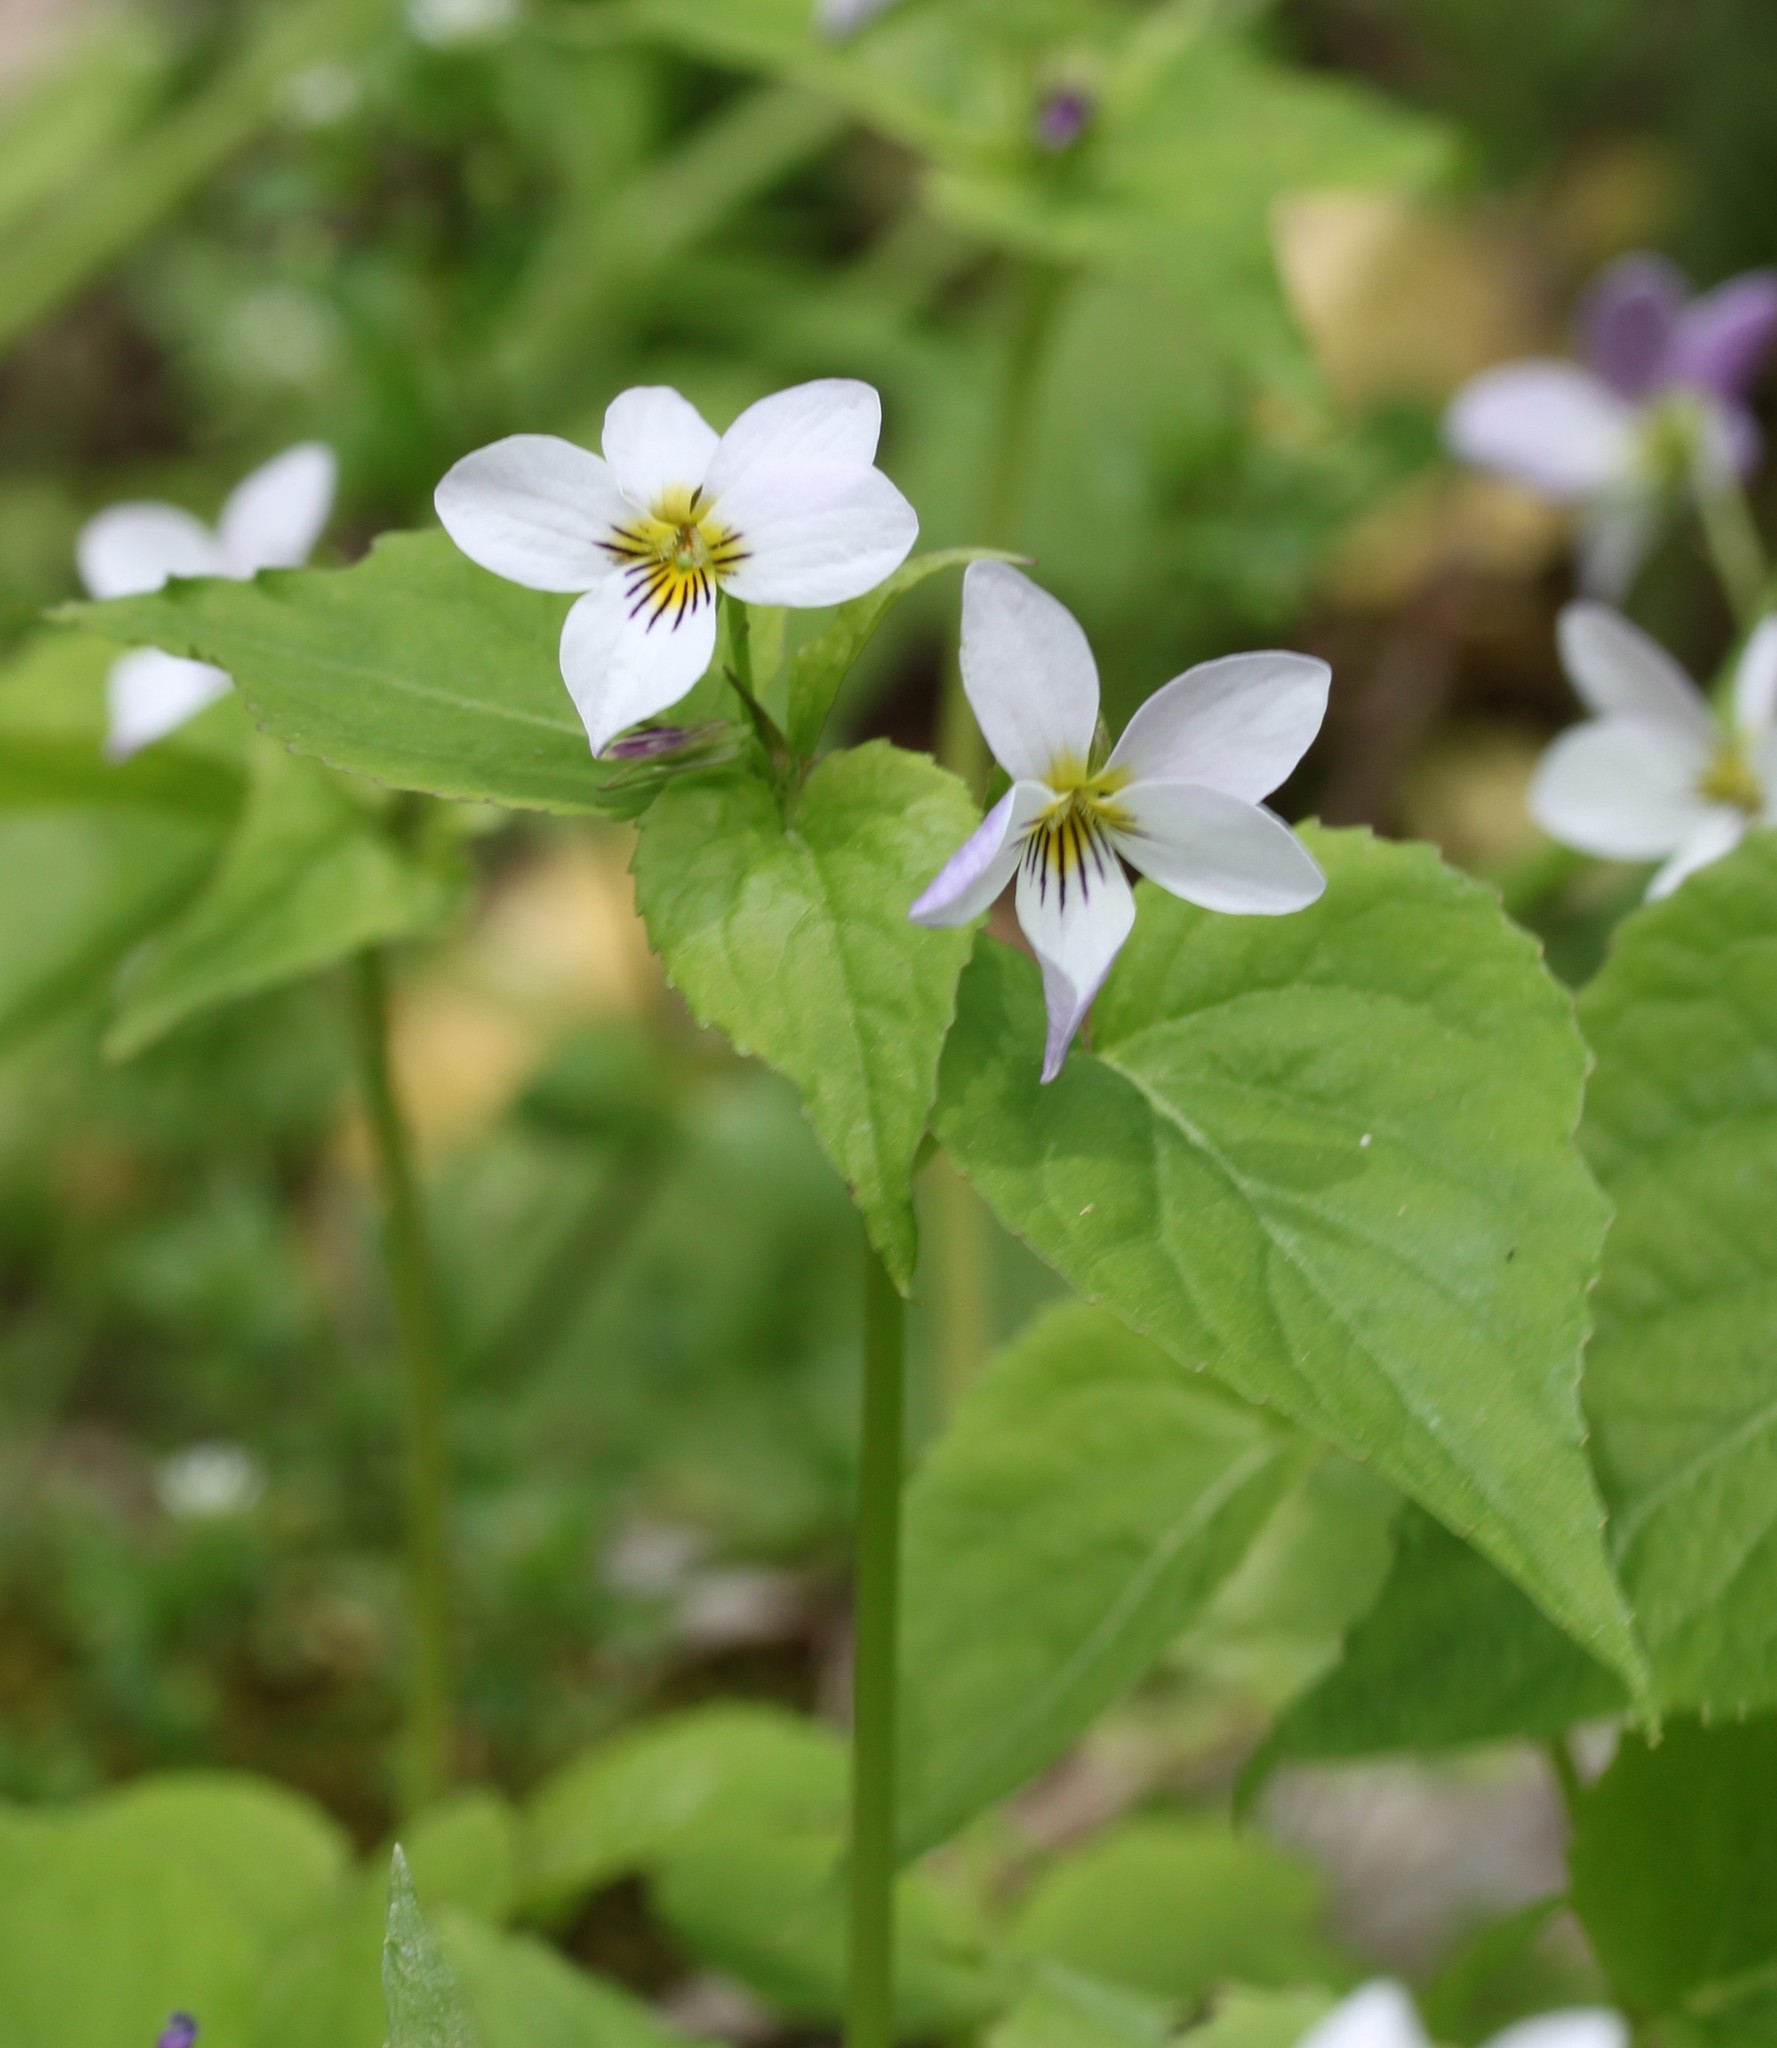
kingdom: Plantae
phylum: Tracheophyta
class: Magnoliopsida
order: Malpighiales
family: Violaceae
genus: Viola
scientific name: Viola canadensis
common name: Canada violet
